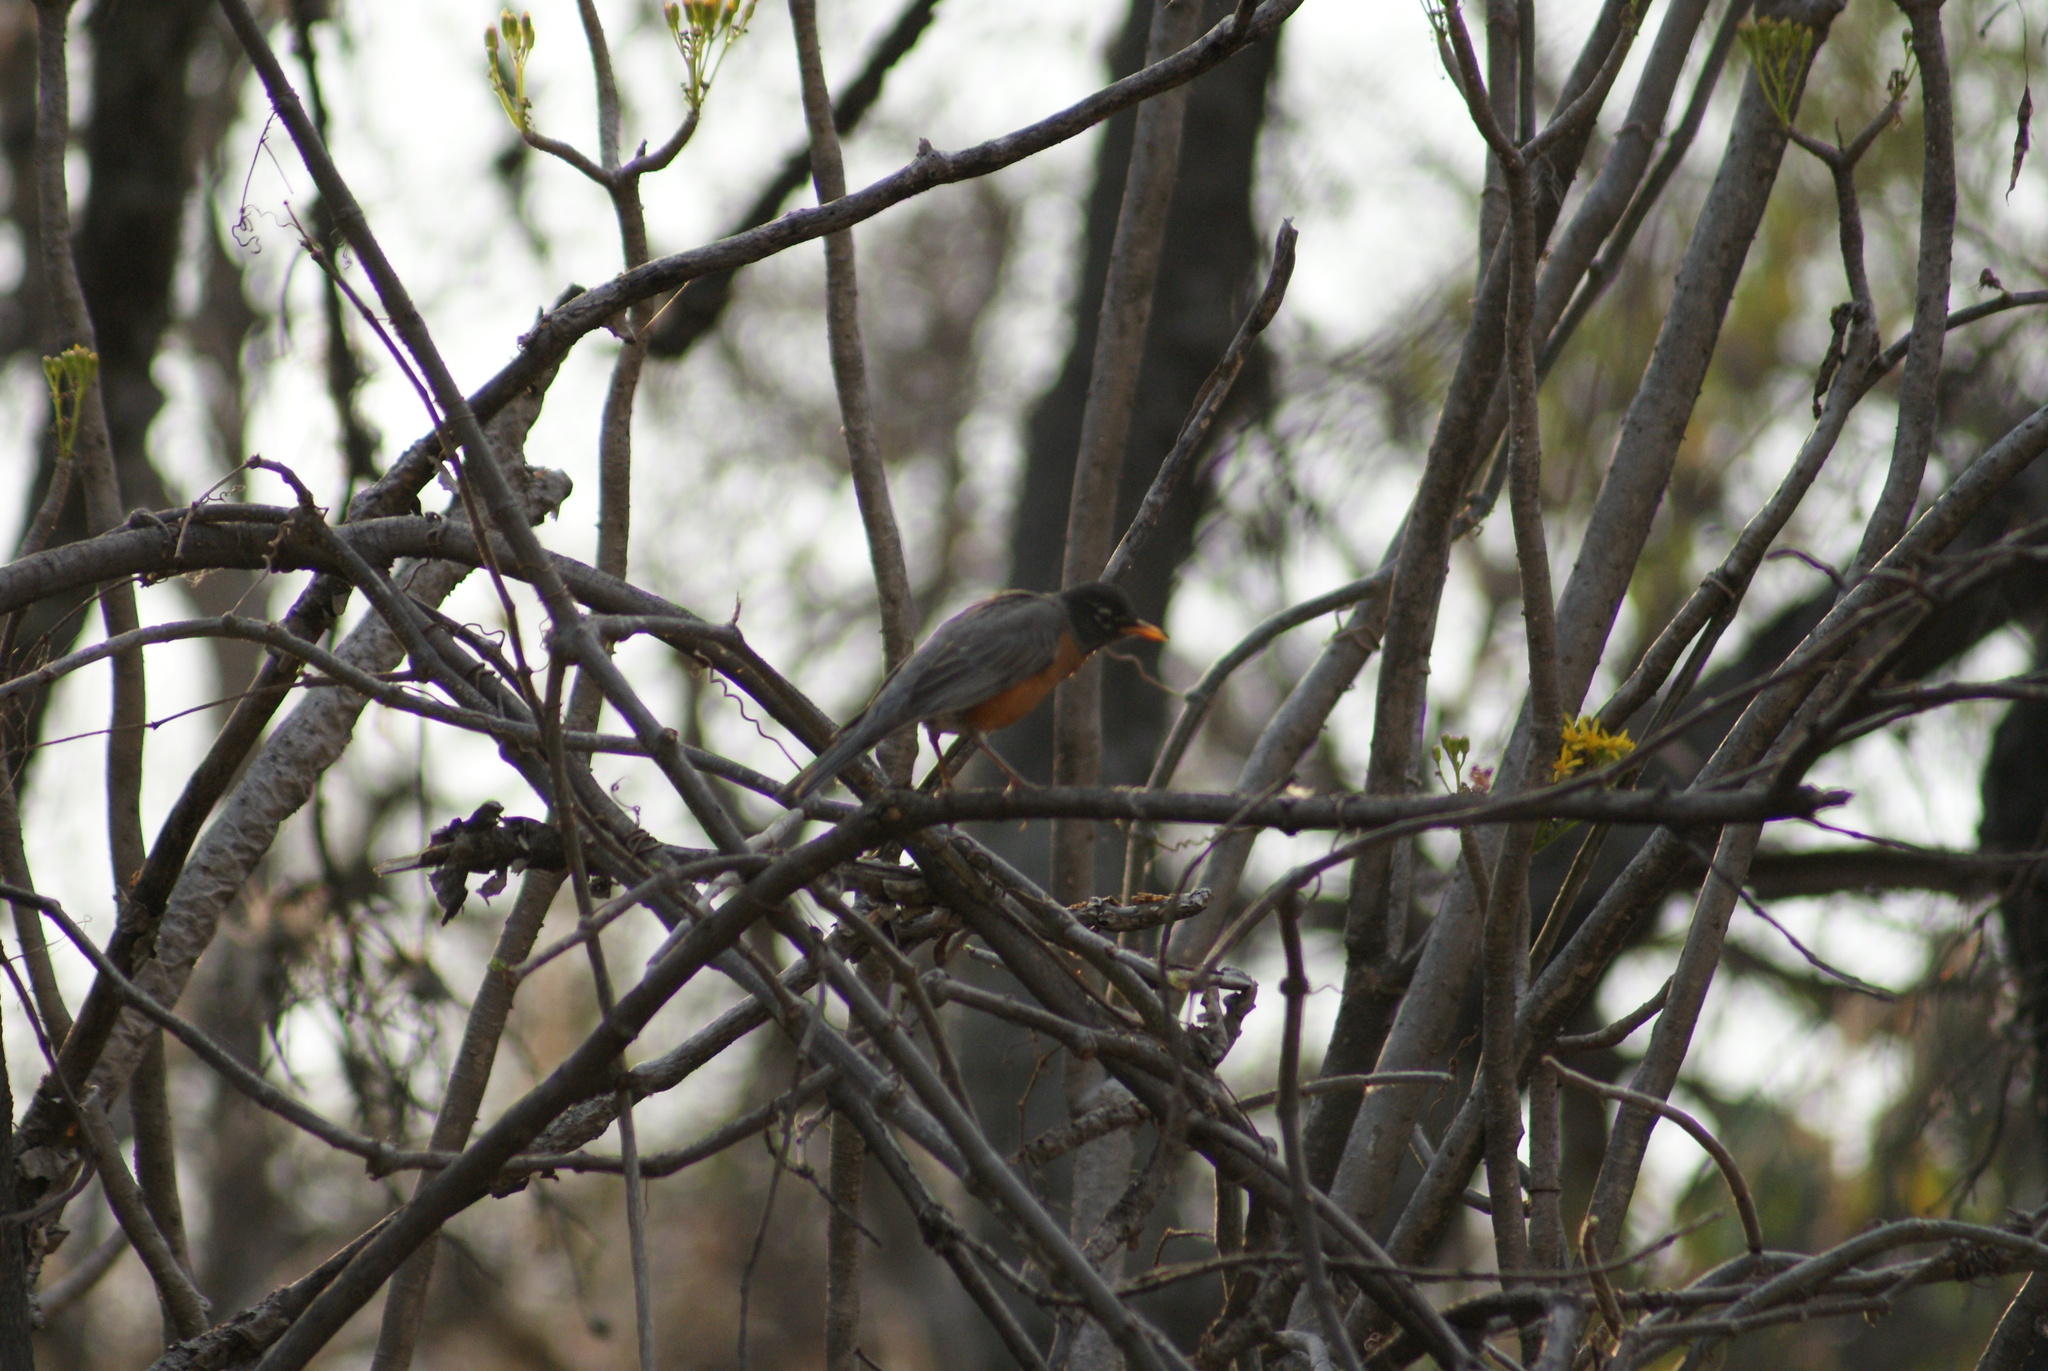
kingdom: Animalia
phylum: Chordata
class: Aves
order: Passeriformes
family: Turdidae
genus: Turdus
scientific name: Turdus migratorius
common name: American robin
